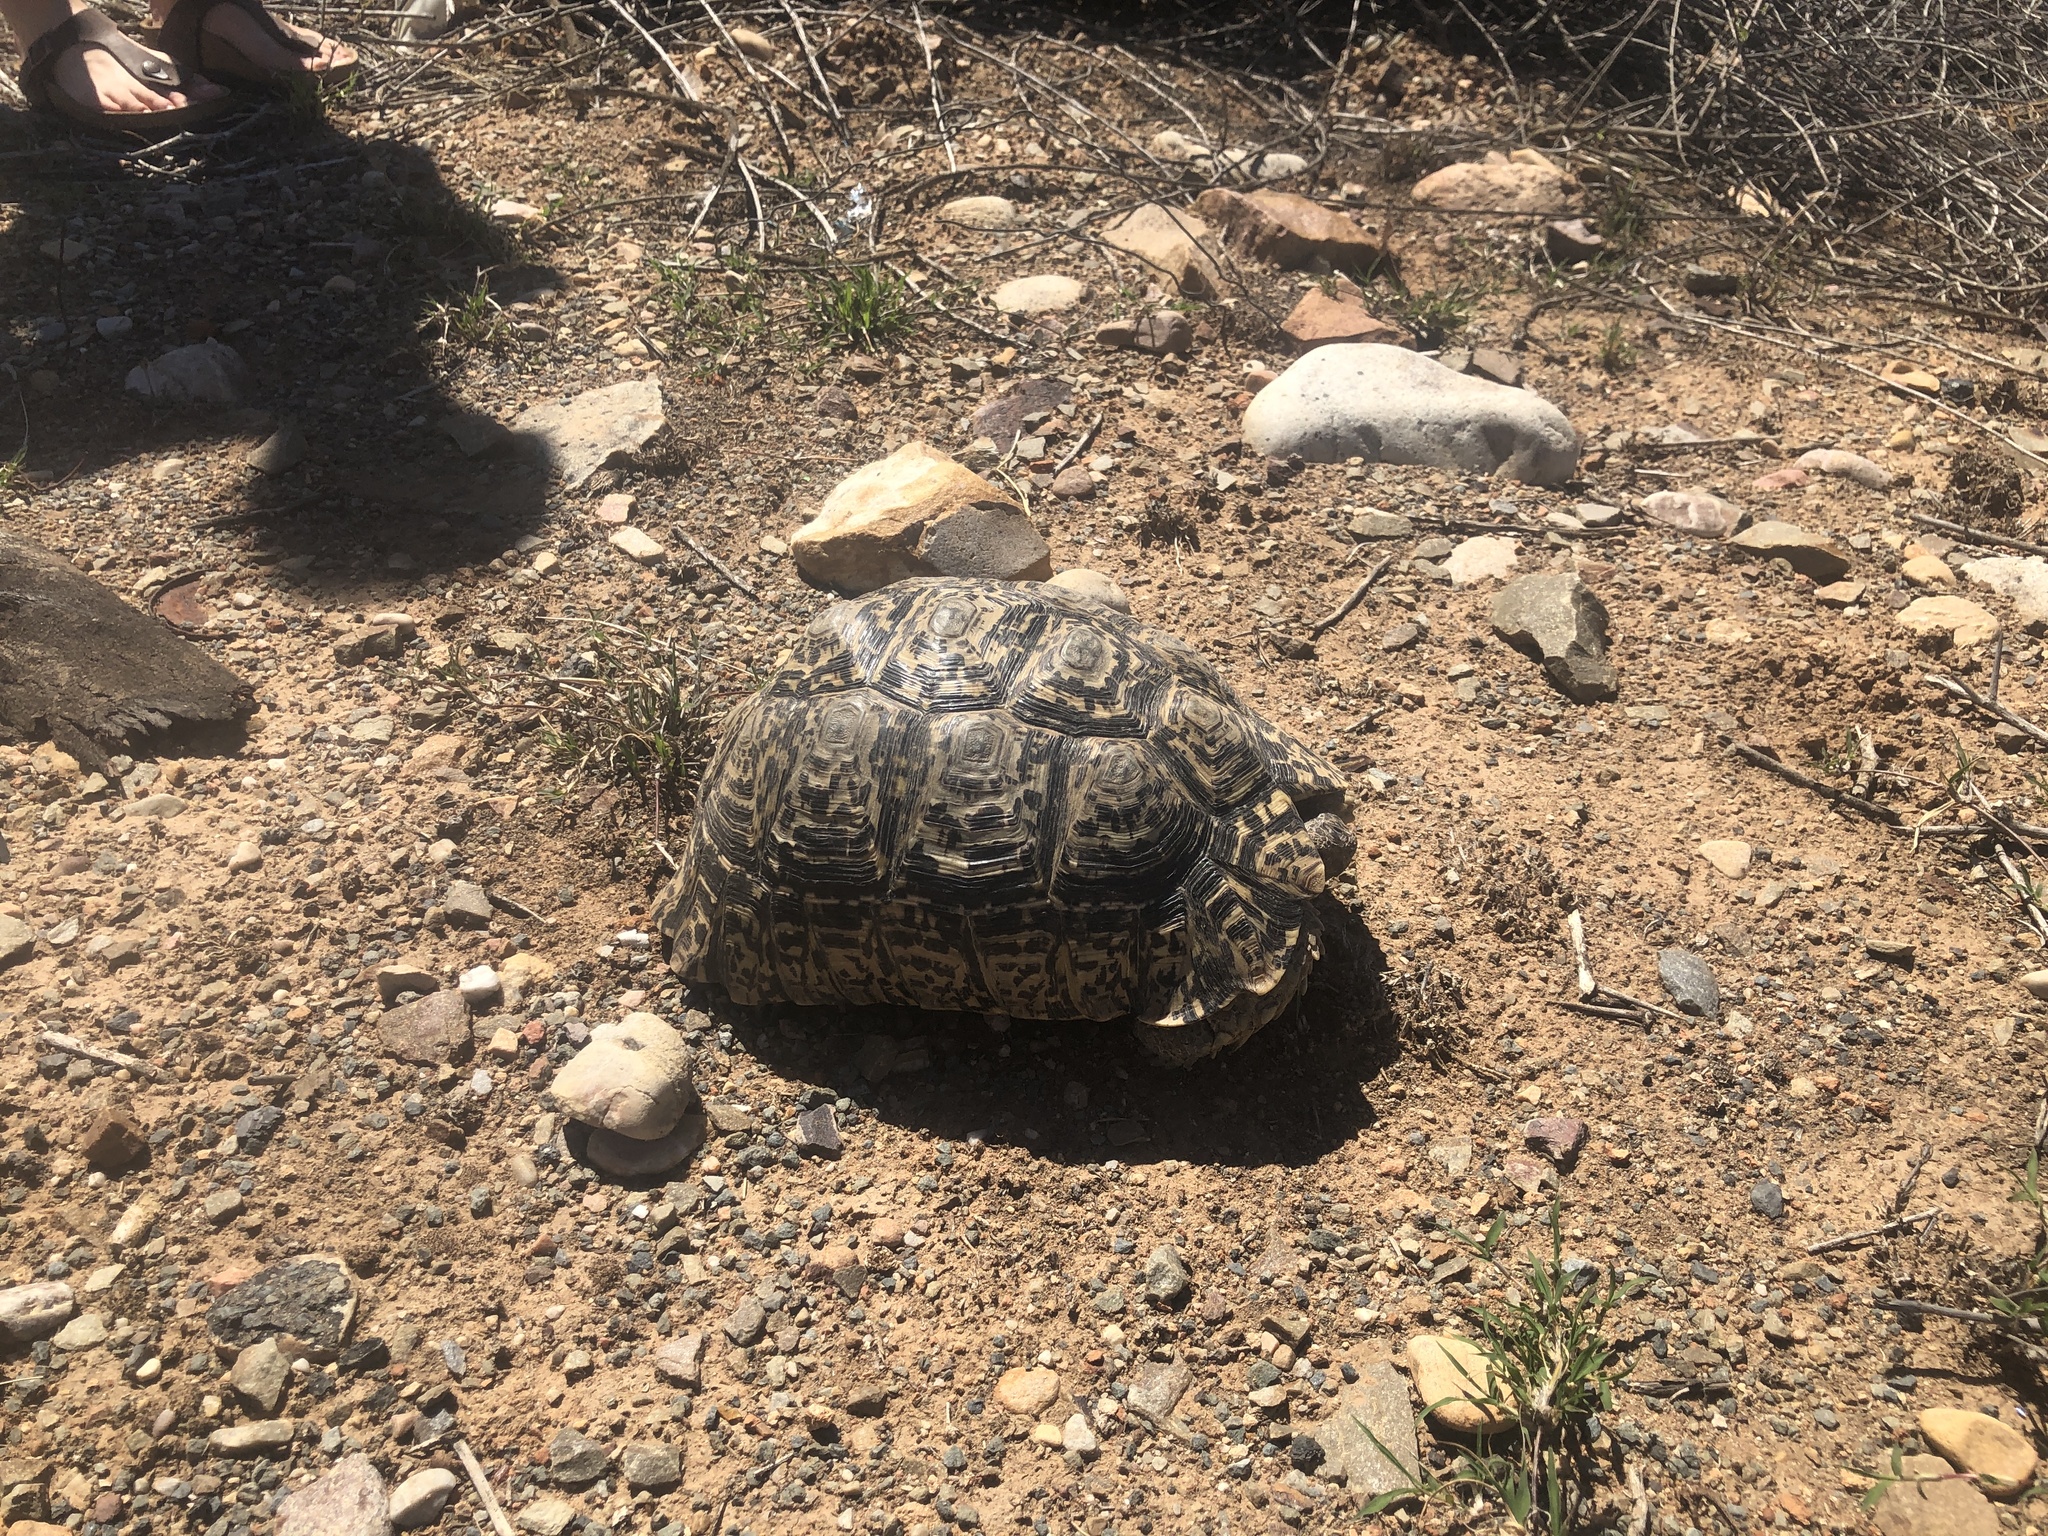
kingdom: Animalia
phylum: Chordata
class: Testudines
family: Testudinidae
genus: Stigmochelys
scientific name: Stigmochelys pardalis
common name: Leopard tortoise
